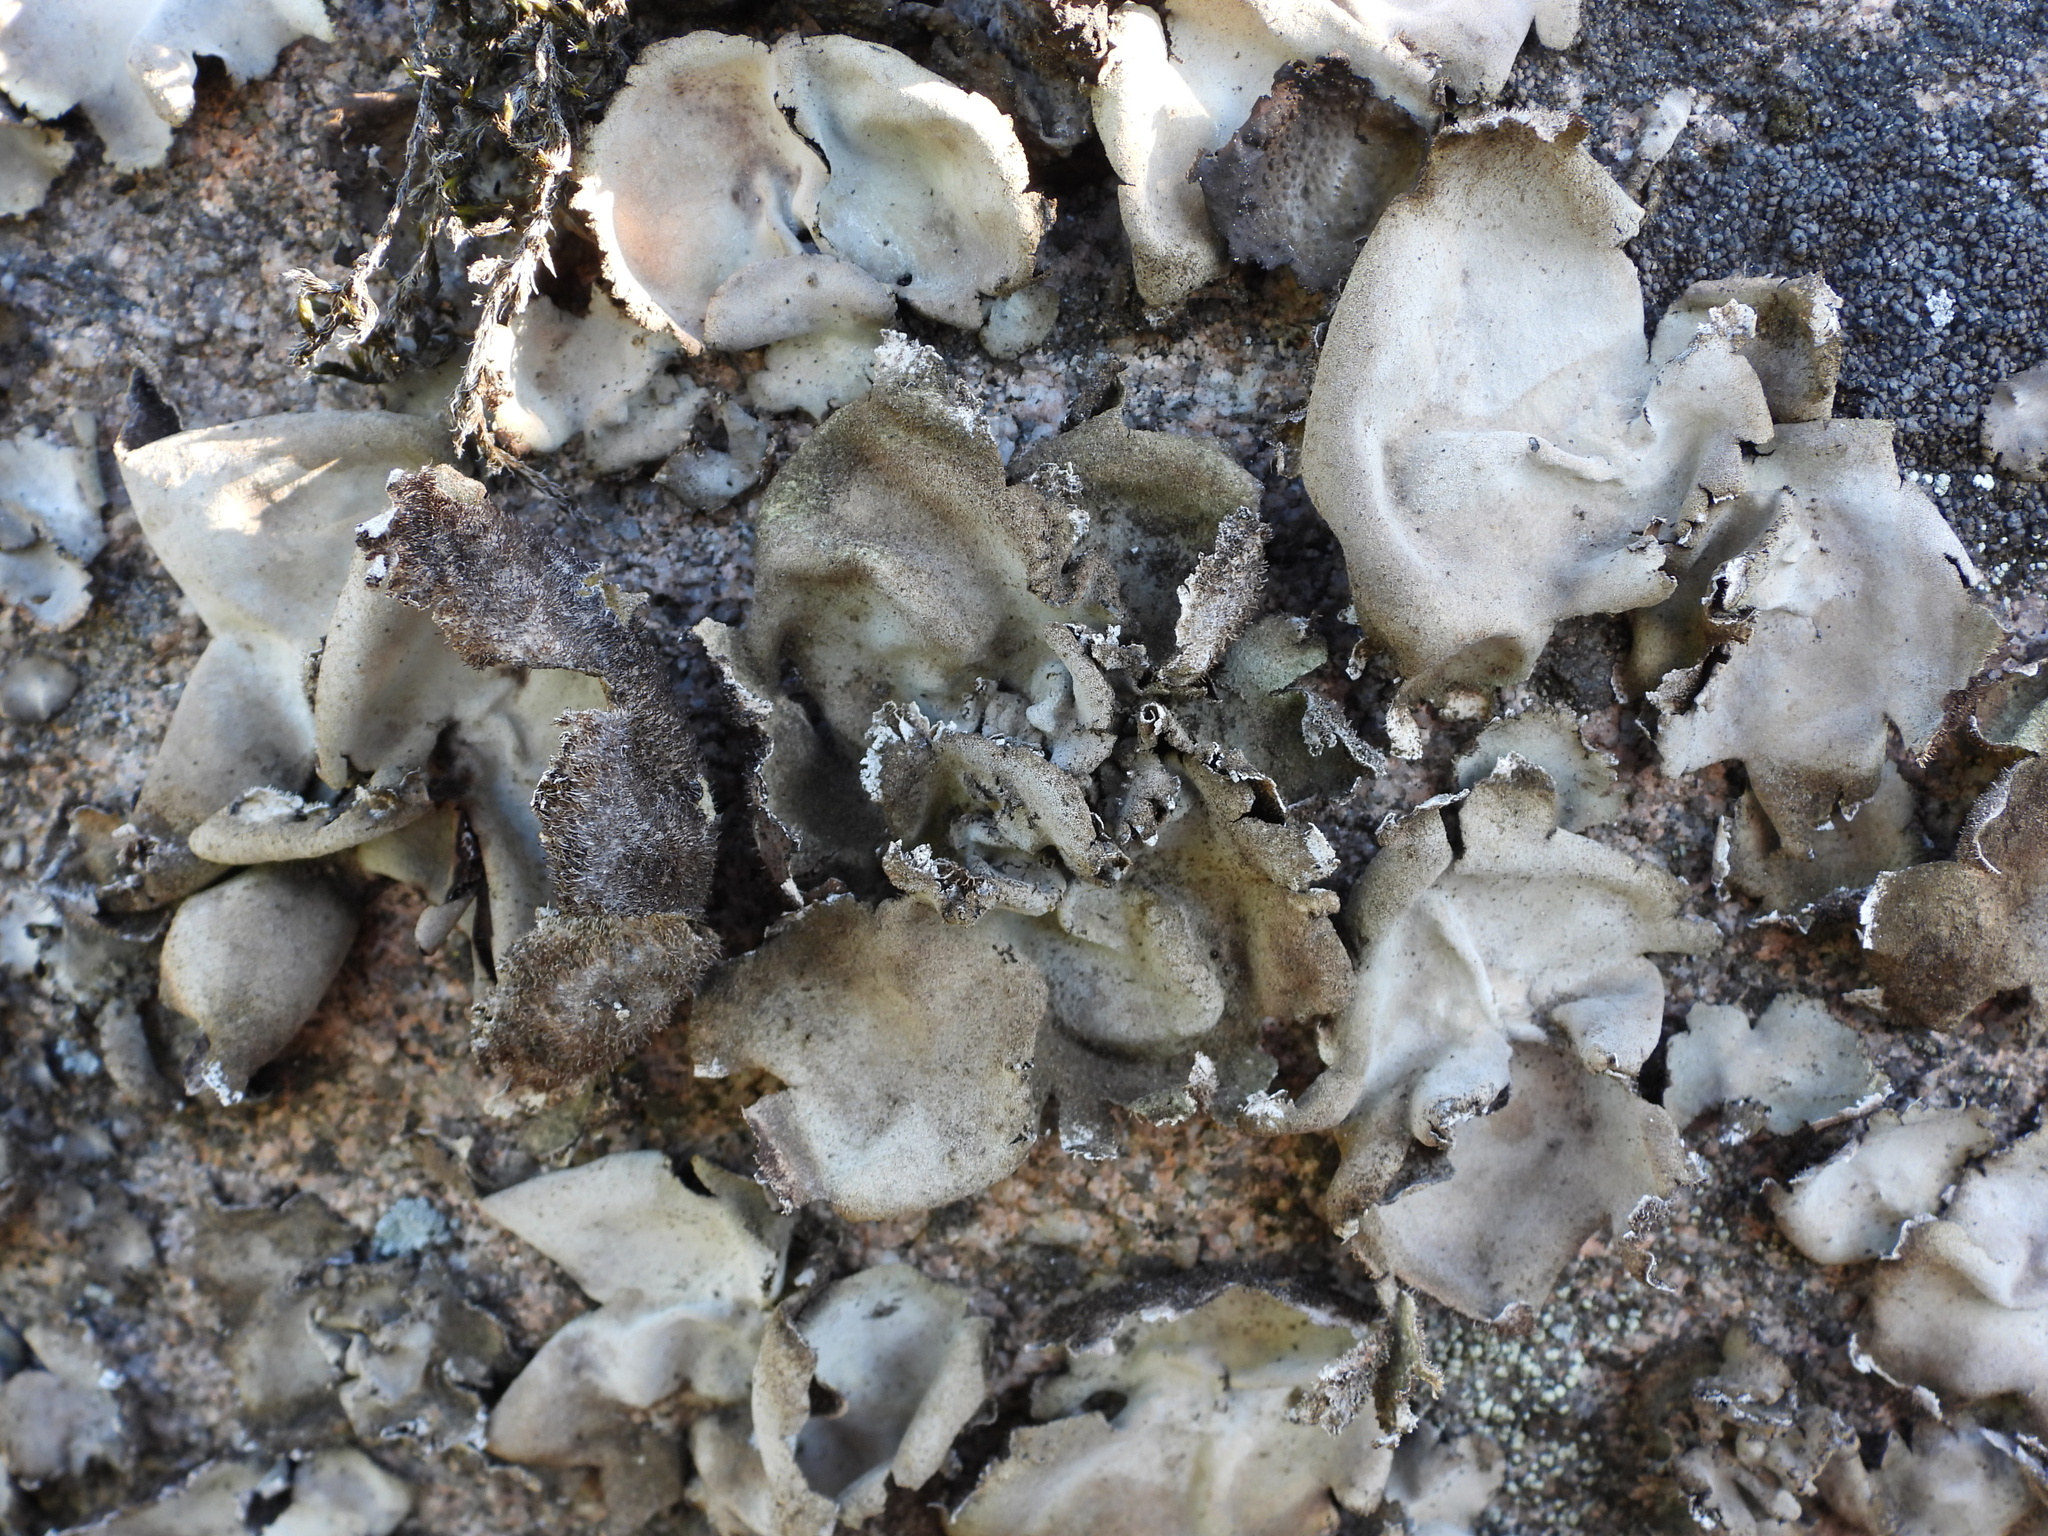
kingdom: Fungi
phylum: Ascomycota
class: Lecanoromycetes
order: Umbilicariales
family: Umbilicariaceae
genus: Umbilicaria
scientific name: Umbilicaria hirsuta
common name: Granulating rocktripe lichen
